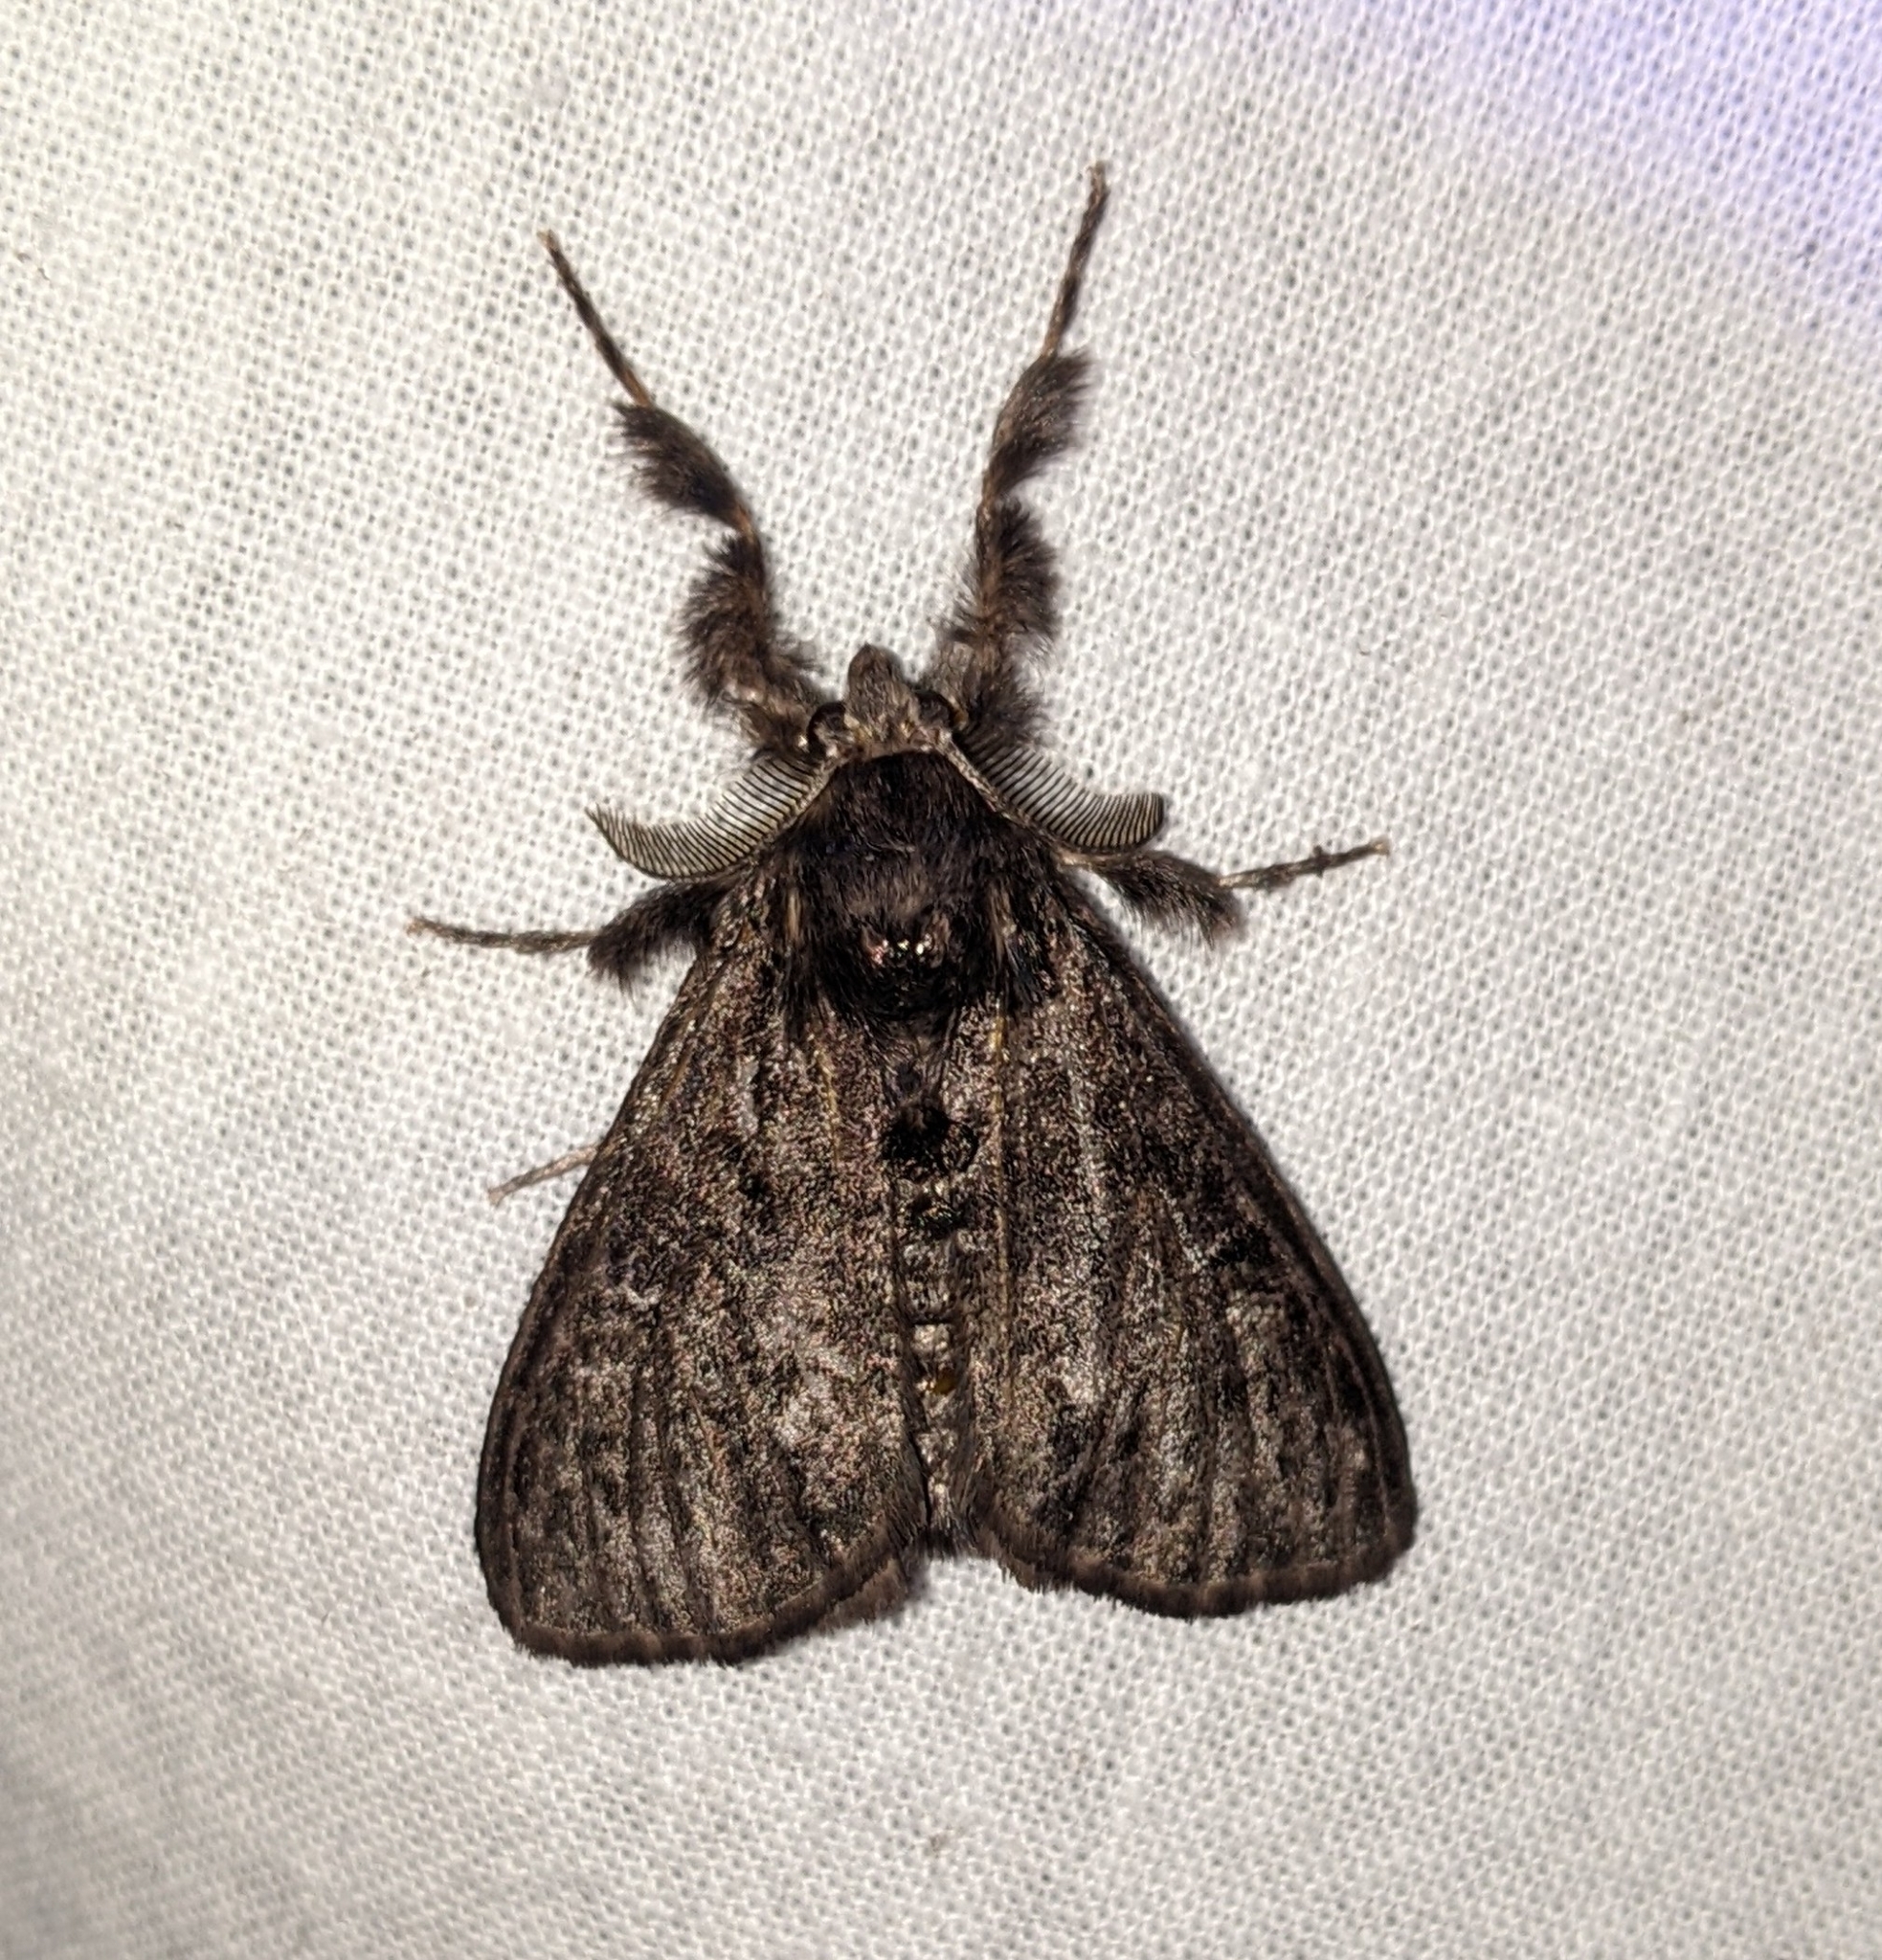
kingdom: Animalia
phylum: Arthropoda
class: Insecta
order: Lepidoptera
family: Erebidae
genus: Dasychira
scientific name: Dasychira grisefacta
